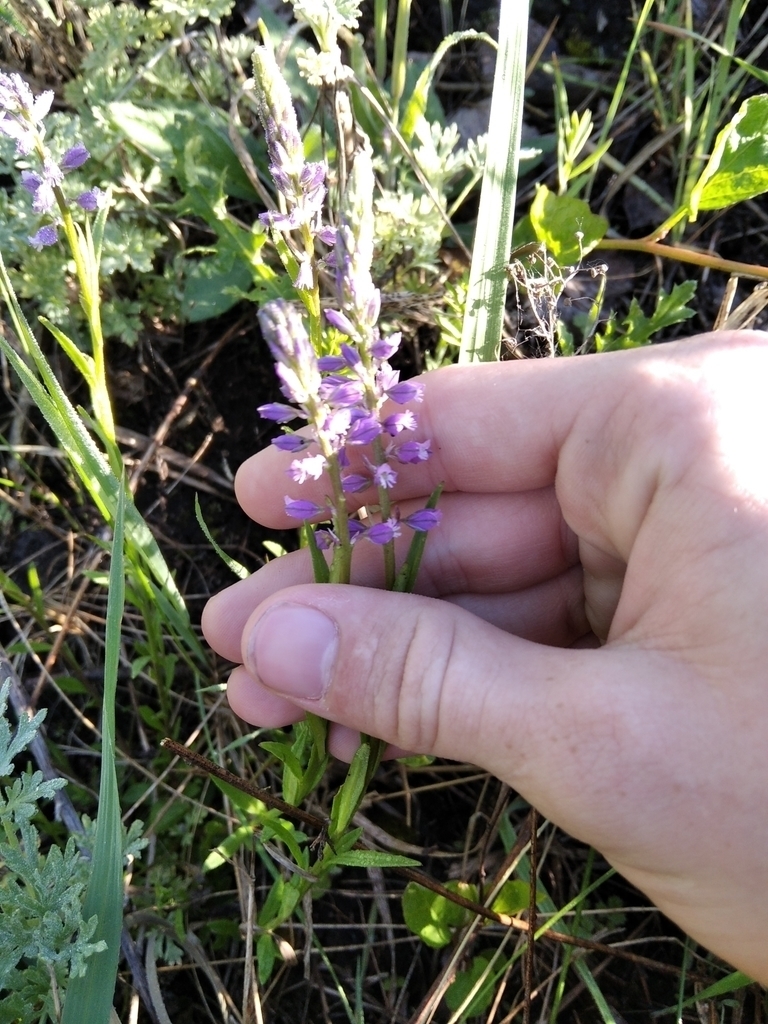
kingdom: Plantae
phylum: Tracheophyta
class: Magnoliopsida
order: Fabales
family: Polygalaceae
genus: Polygala
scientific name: Polygala comosa
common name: Tufted milkwort
